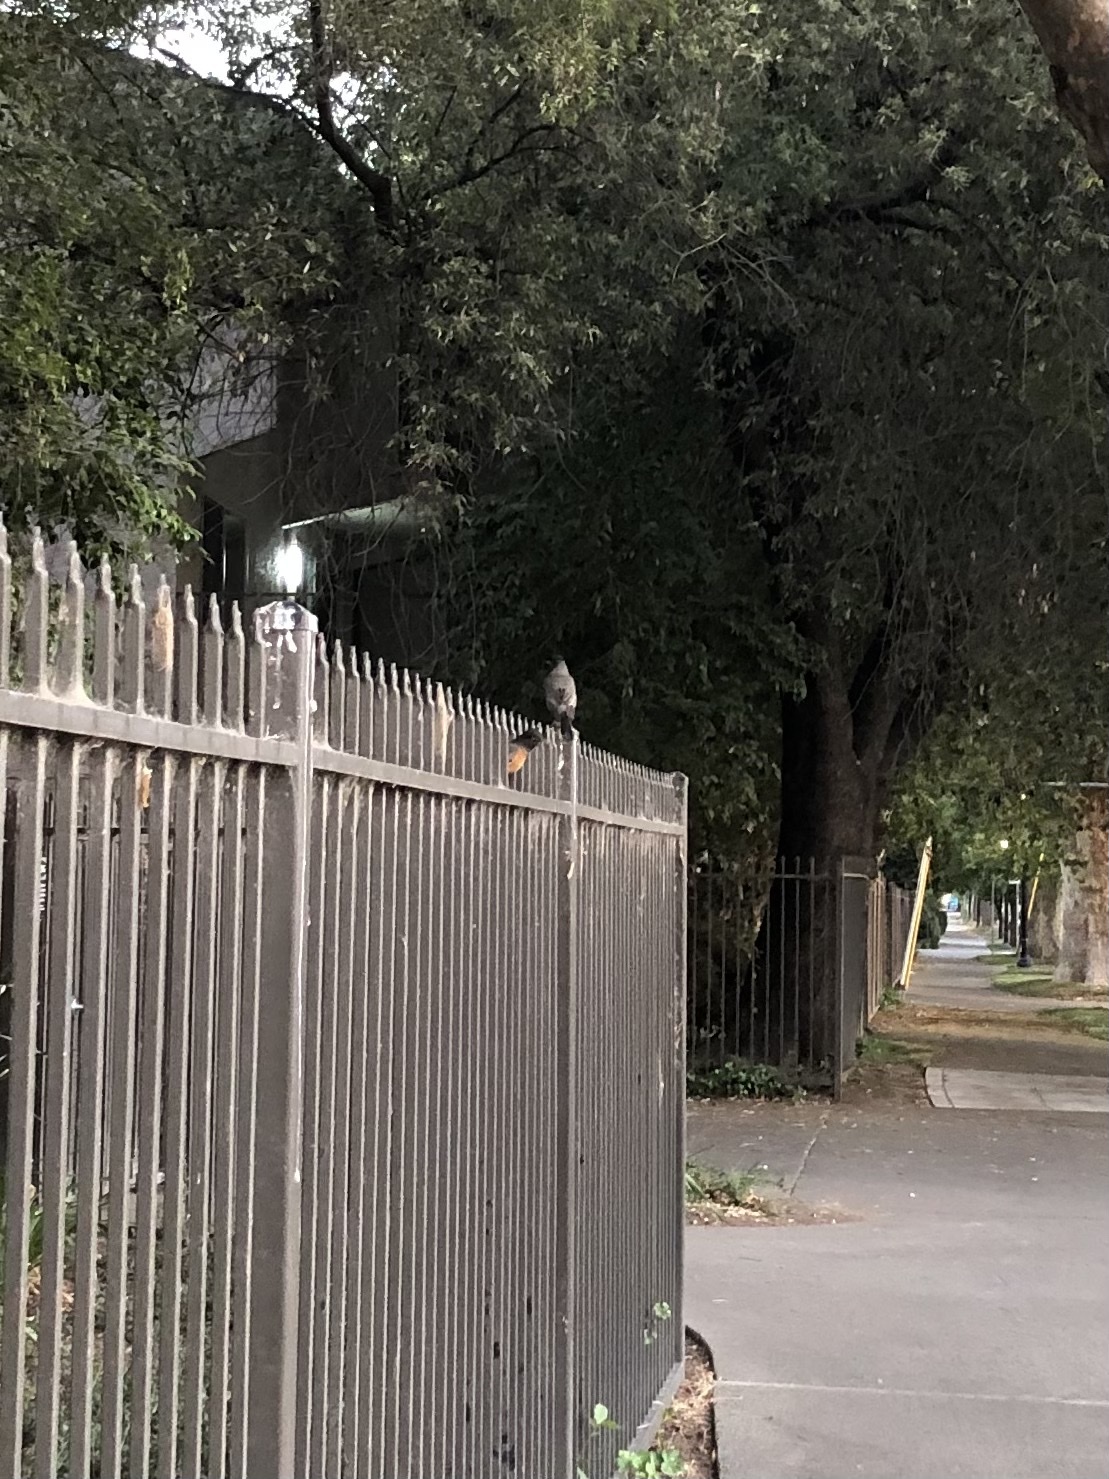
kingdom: Animalia
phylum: Chordata
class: Aves
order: Passeriformes
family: Turdidae
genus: Turdus
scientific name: Turdus migratorius
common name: American robin
